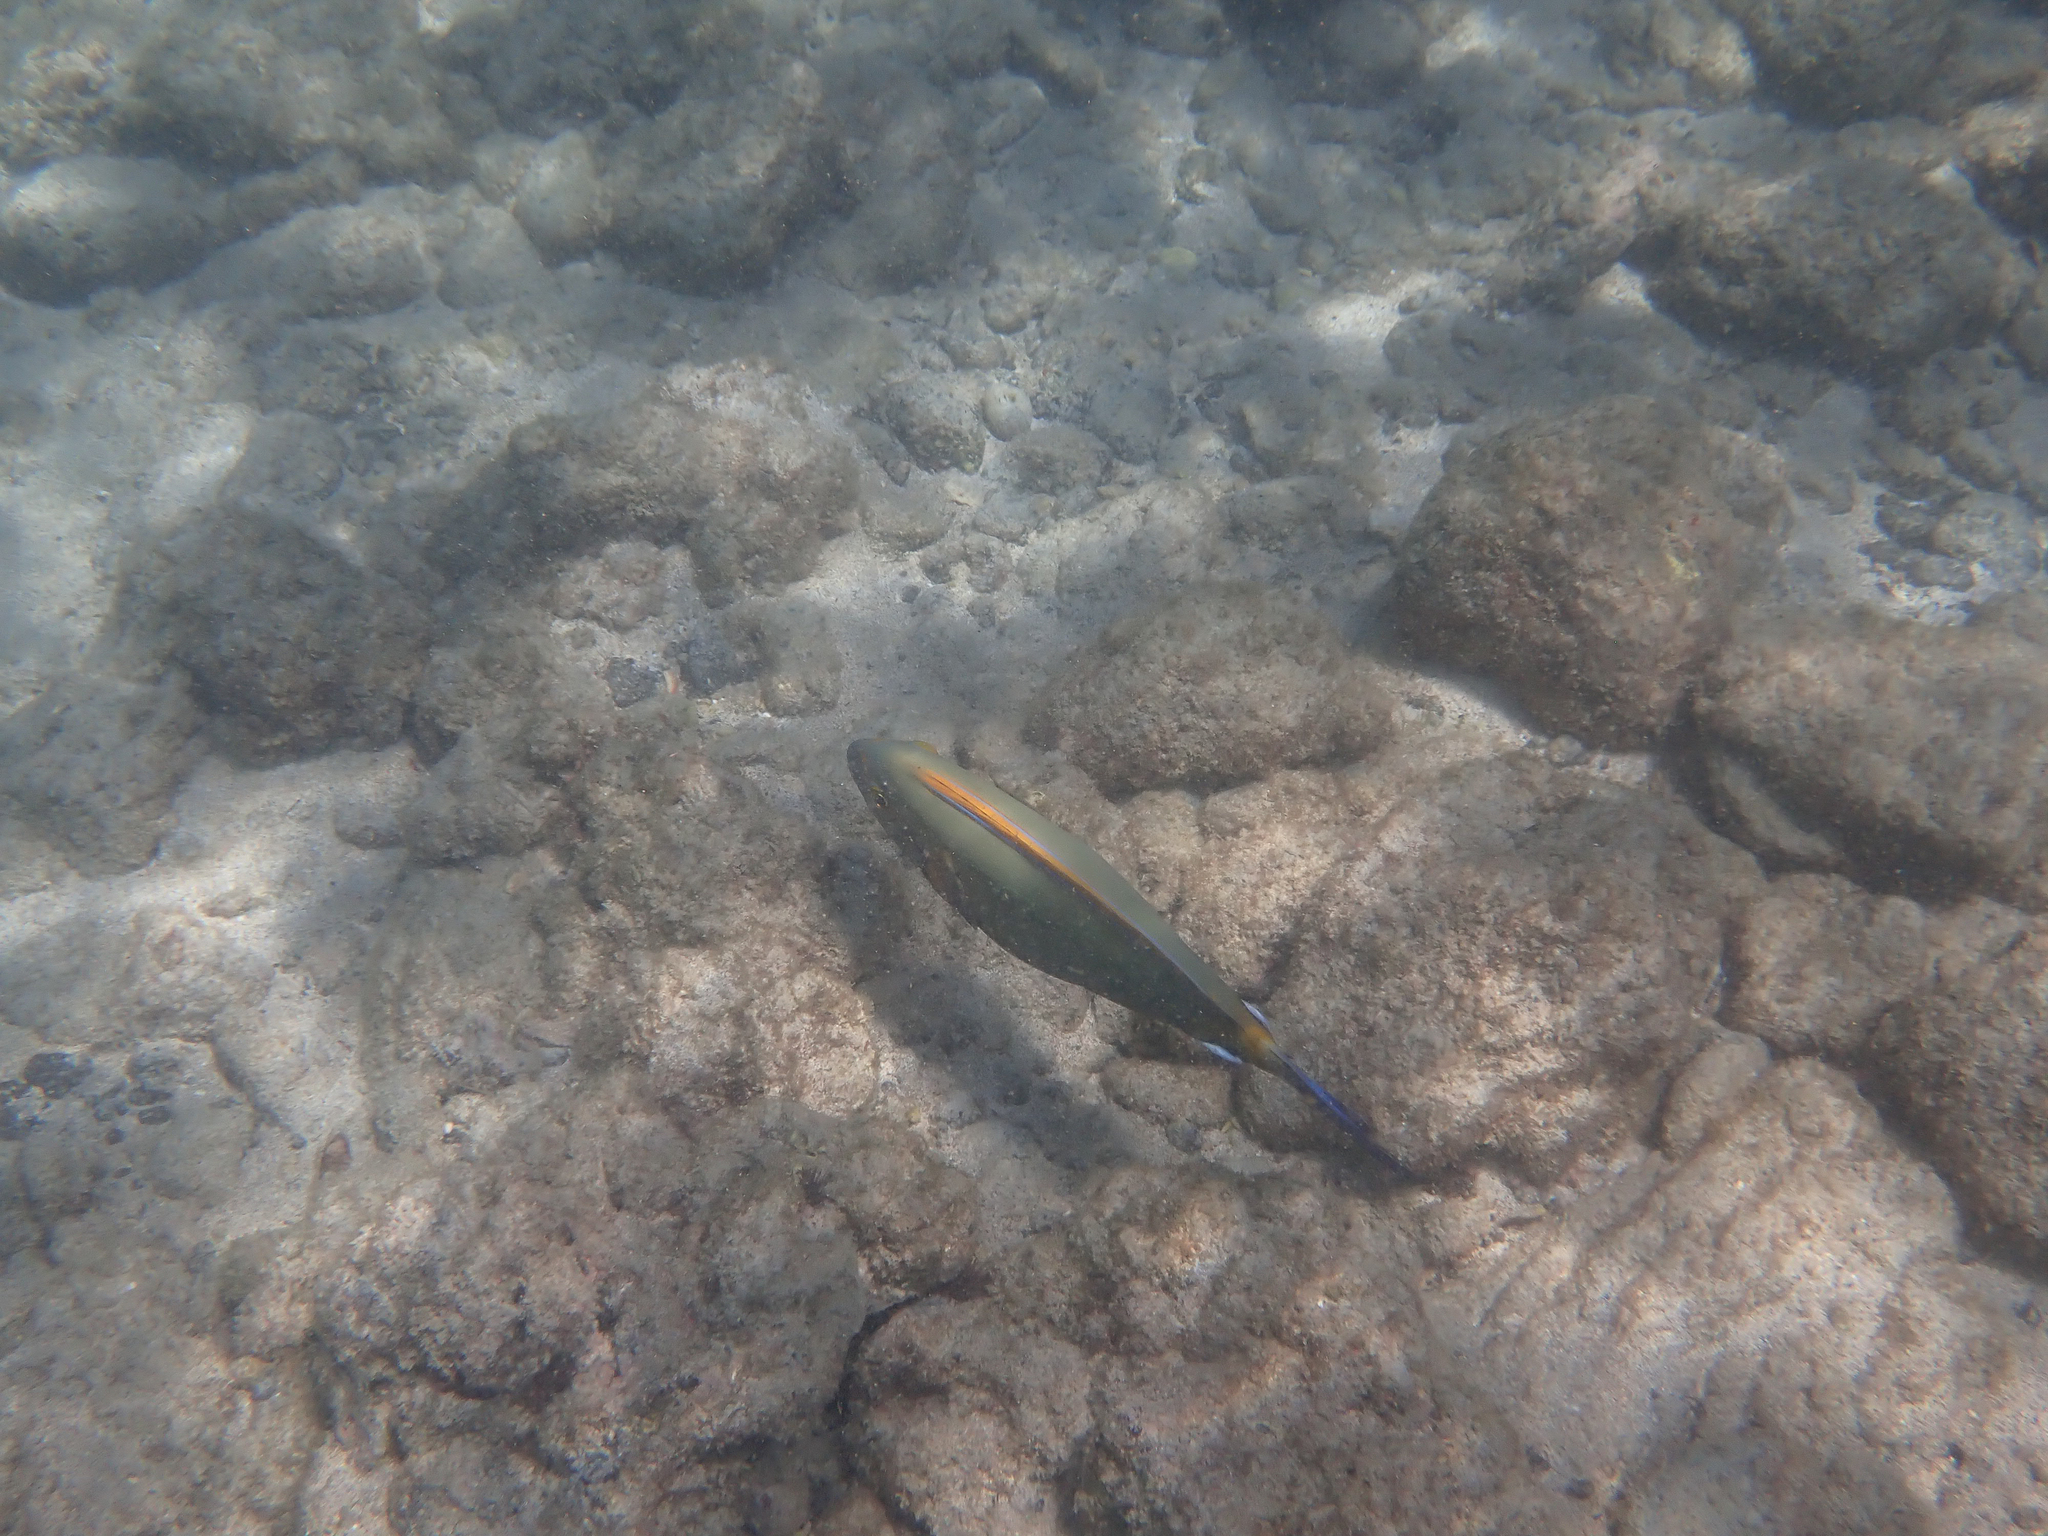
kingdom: Animalia
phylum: Chordata
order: Perciformes
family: Acanthuridae
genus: Acanthurus
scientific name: Acanthurus dussumieri
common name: Dussumier's surgeonfish
